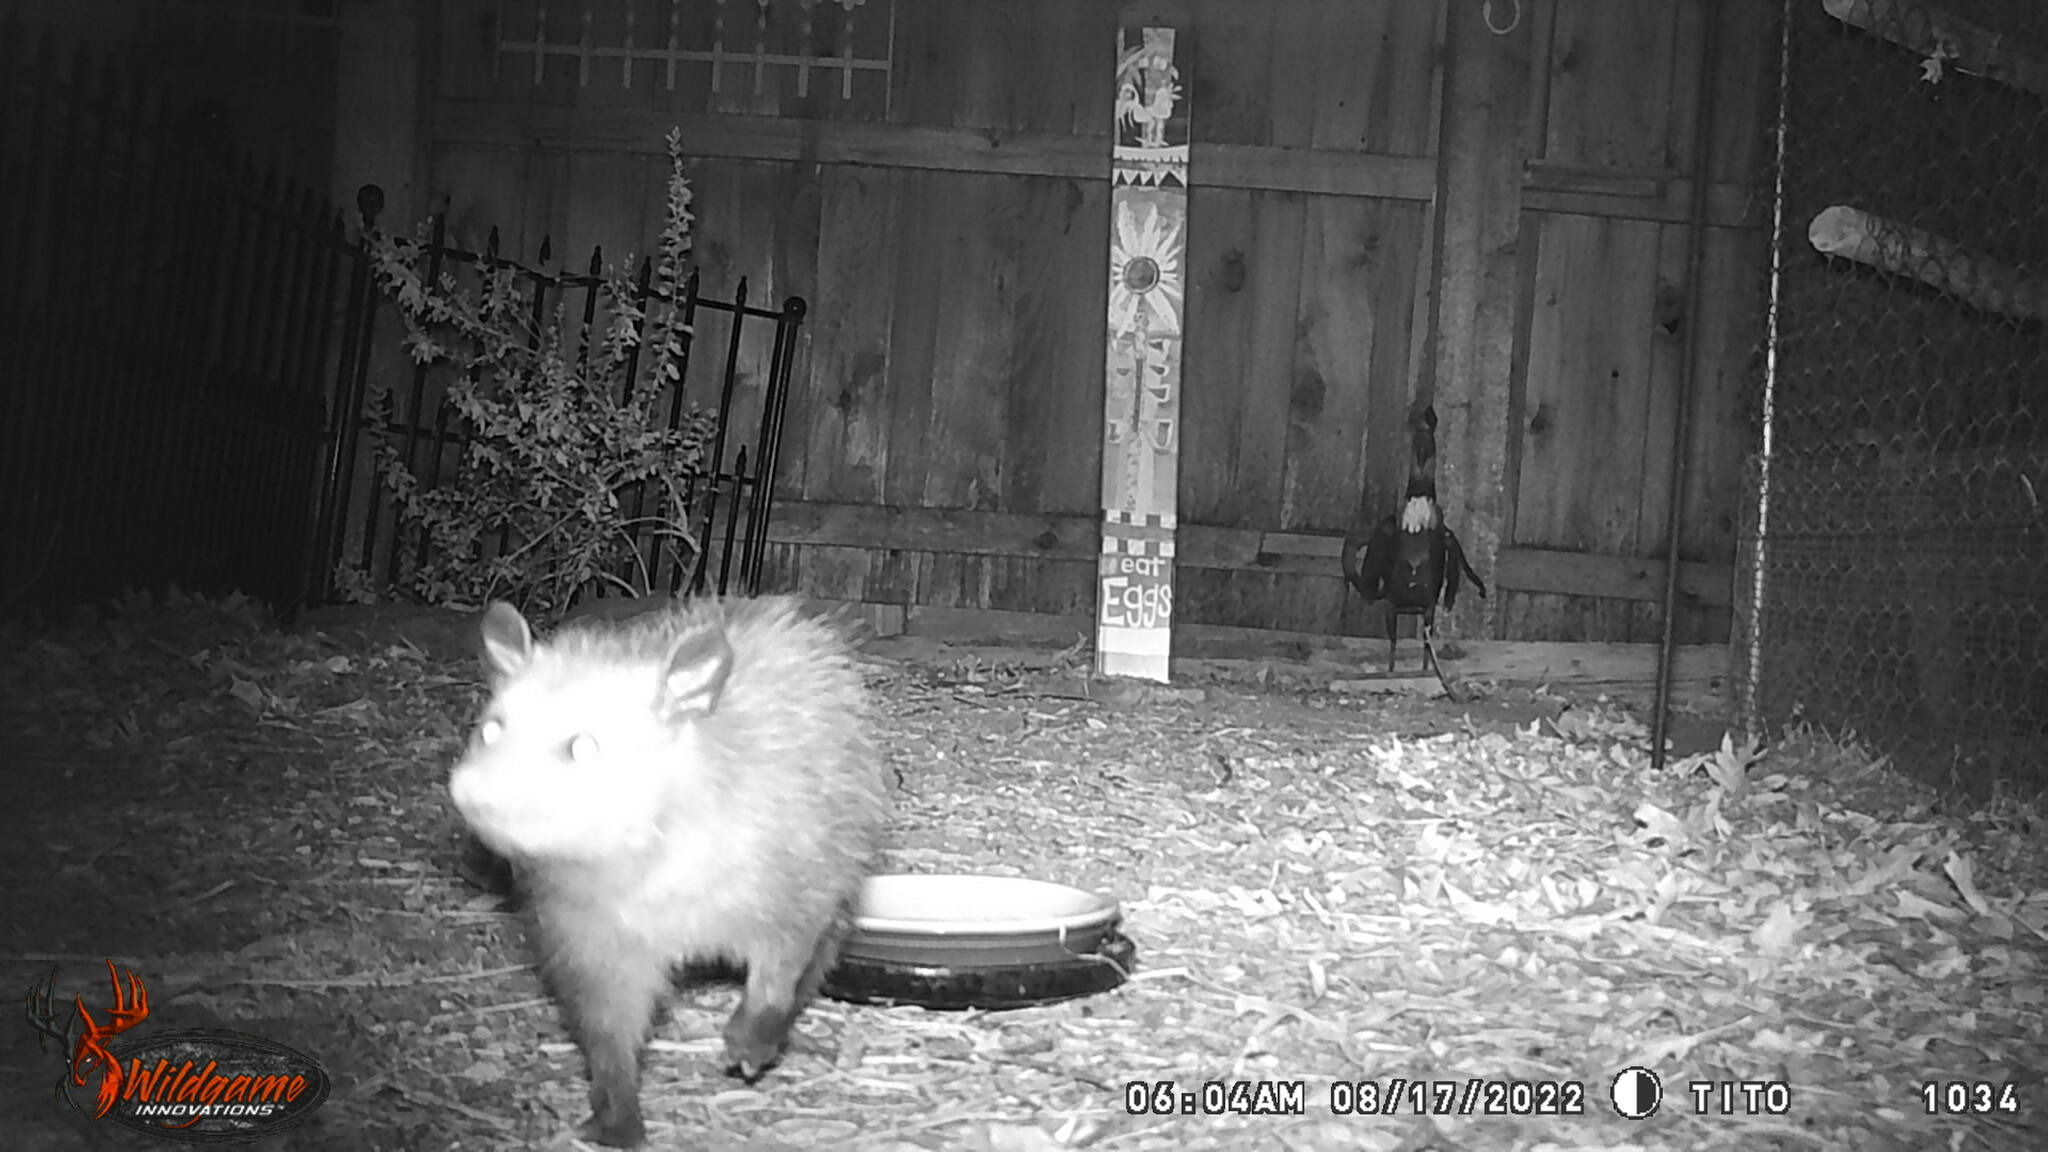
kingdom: Animalia
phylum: Chordata
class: Mammalia
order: Didelphimorphia
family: Didelphidae
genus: Didelphis
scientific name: Didelphis virginiana
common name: Virginia opossum
